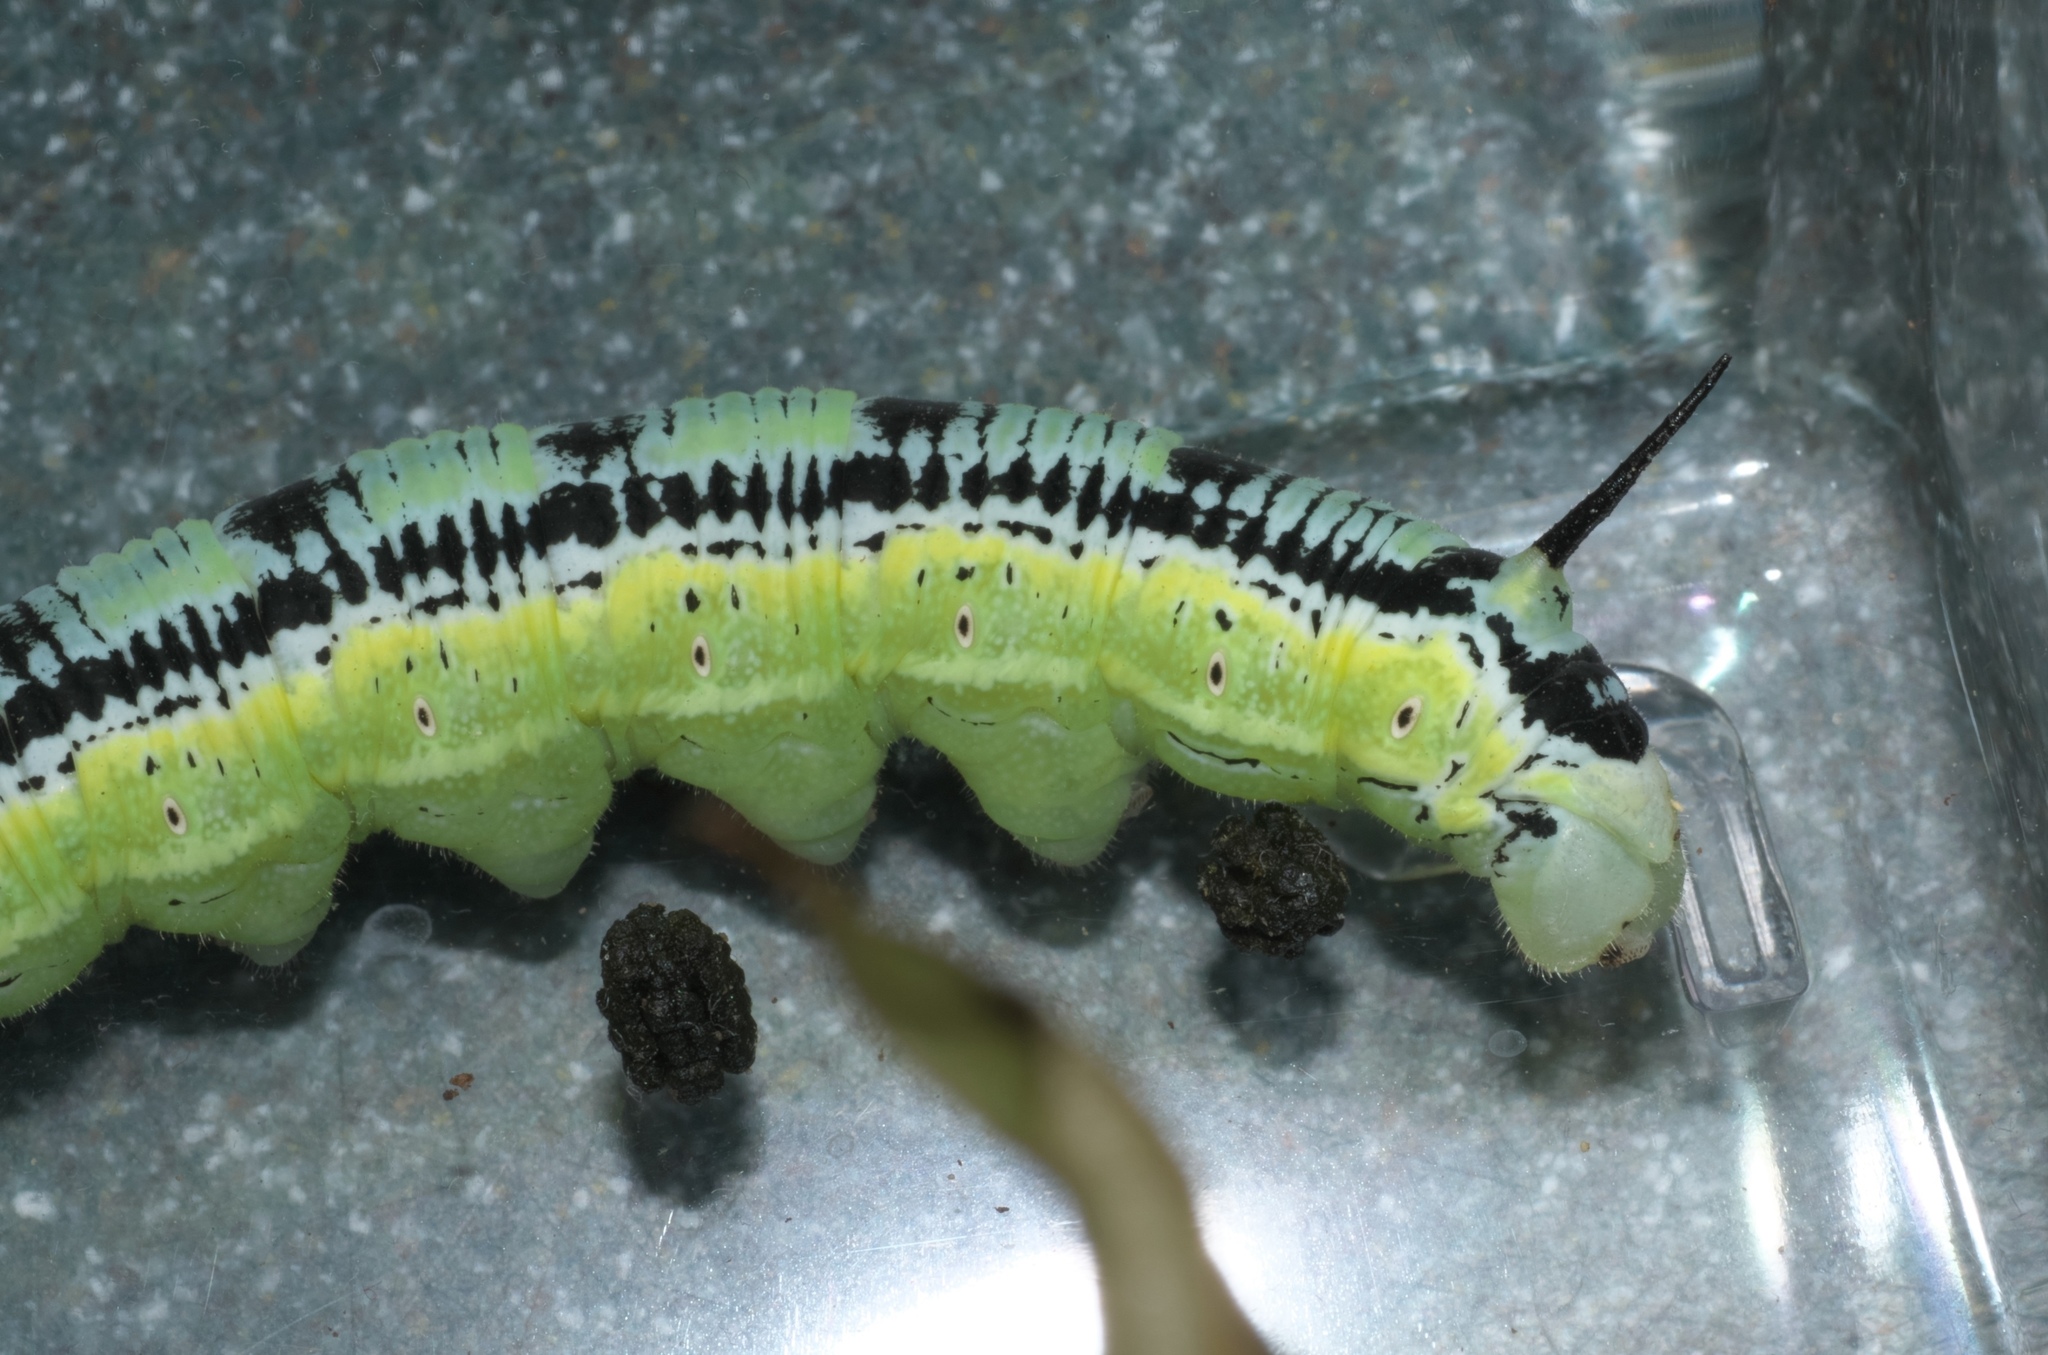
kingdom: Animalia
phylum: Arthropoda
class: Insecta
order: Lepidoptera
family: Sphingidae
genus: Ceratomia
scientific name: Ceratomia catalpae
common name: Catalpa hornworm
